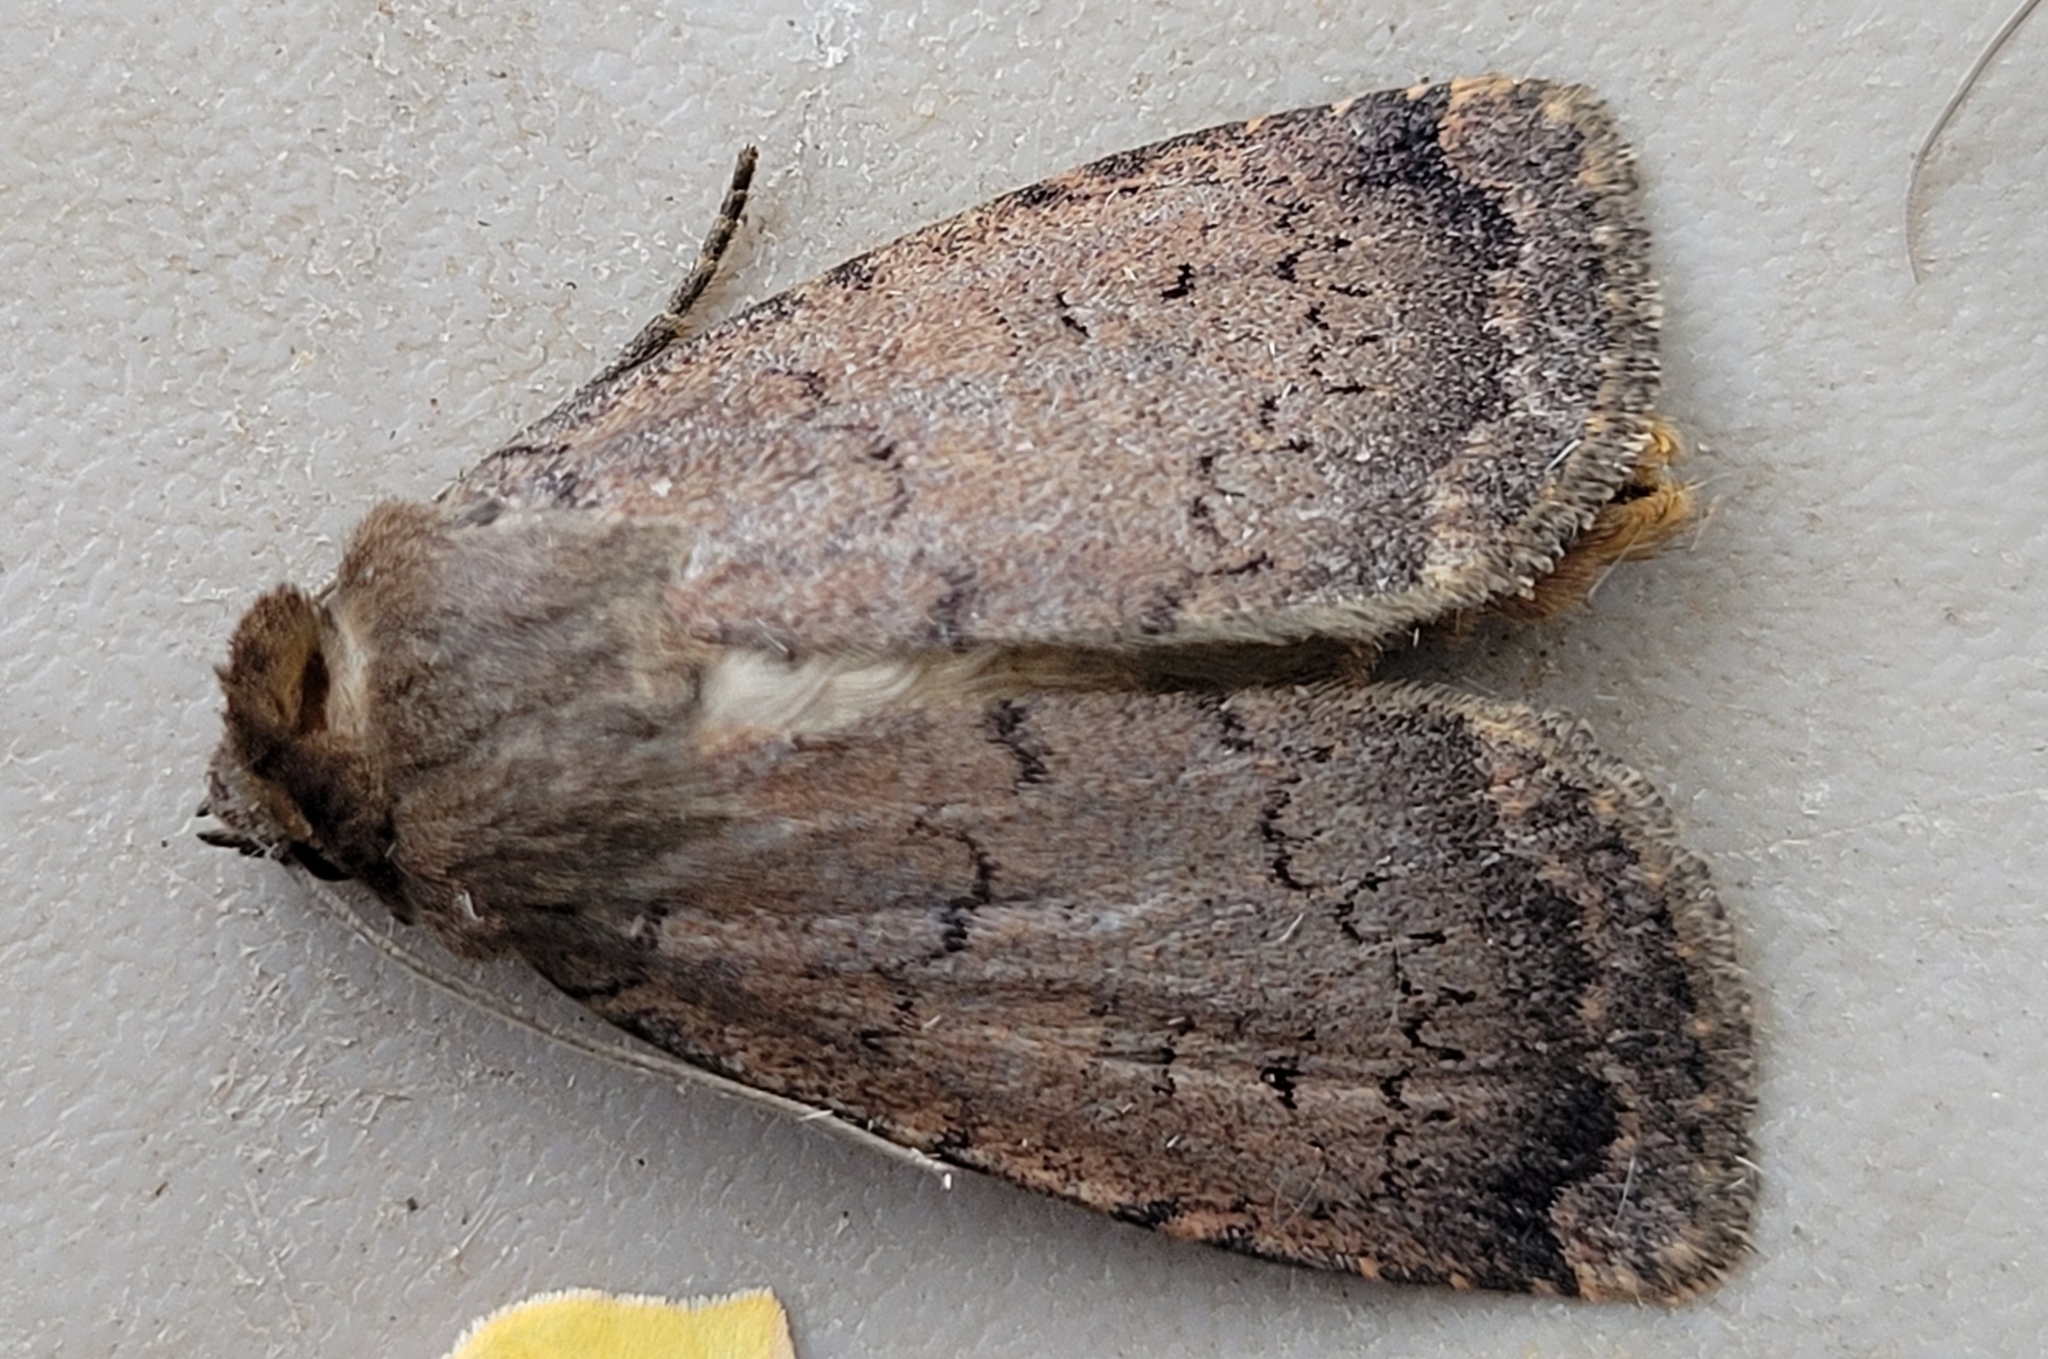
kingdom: Animalia
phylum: Arthropoda
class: Insecta
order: Lepidoptera
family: Noctuidae
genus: Graphiphora
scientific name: Graphiphora augur
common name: Double dart
